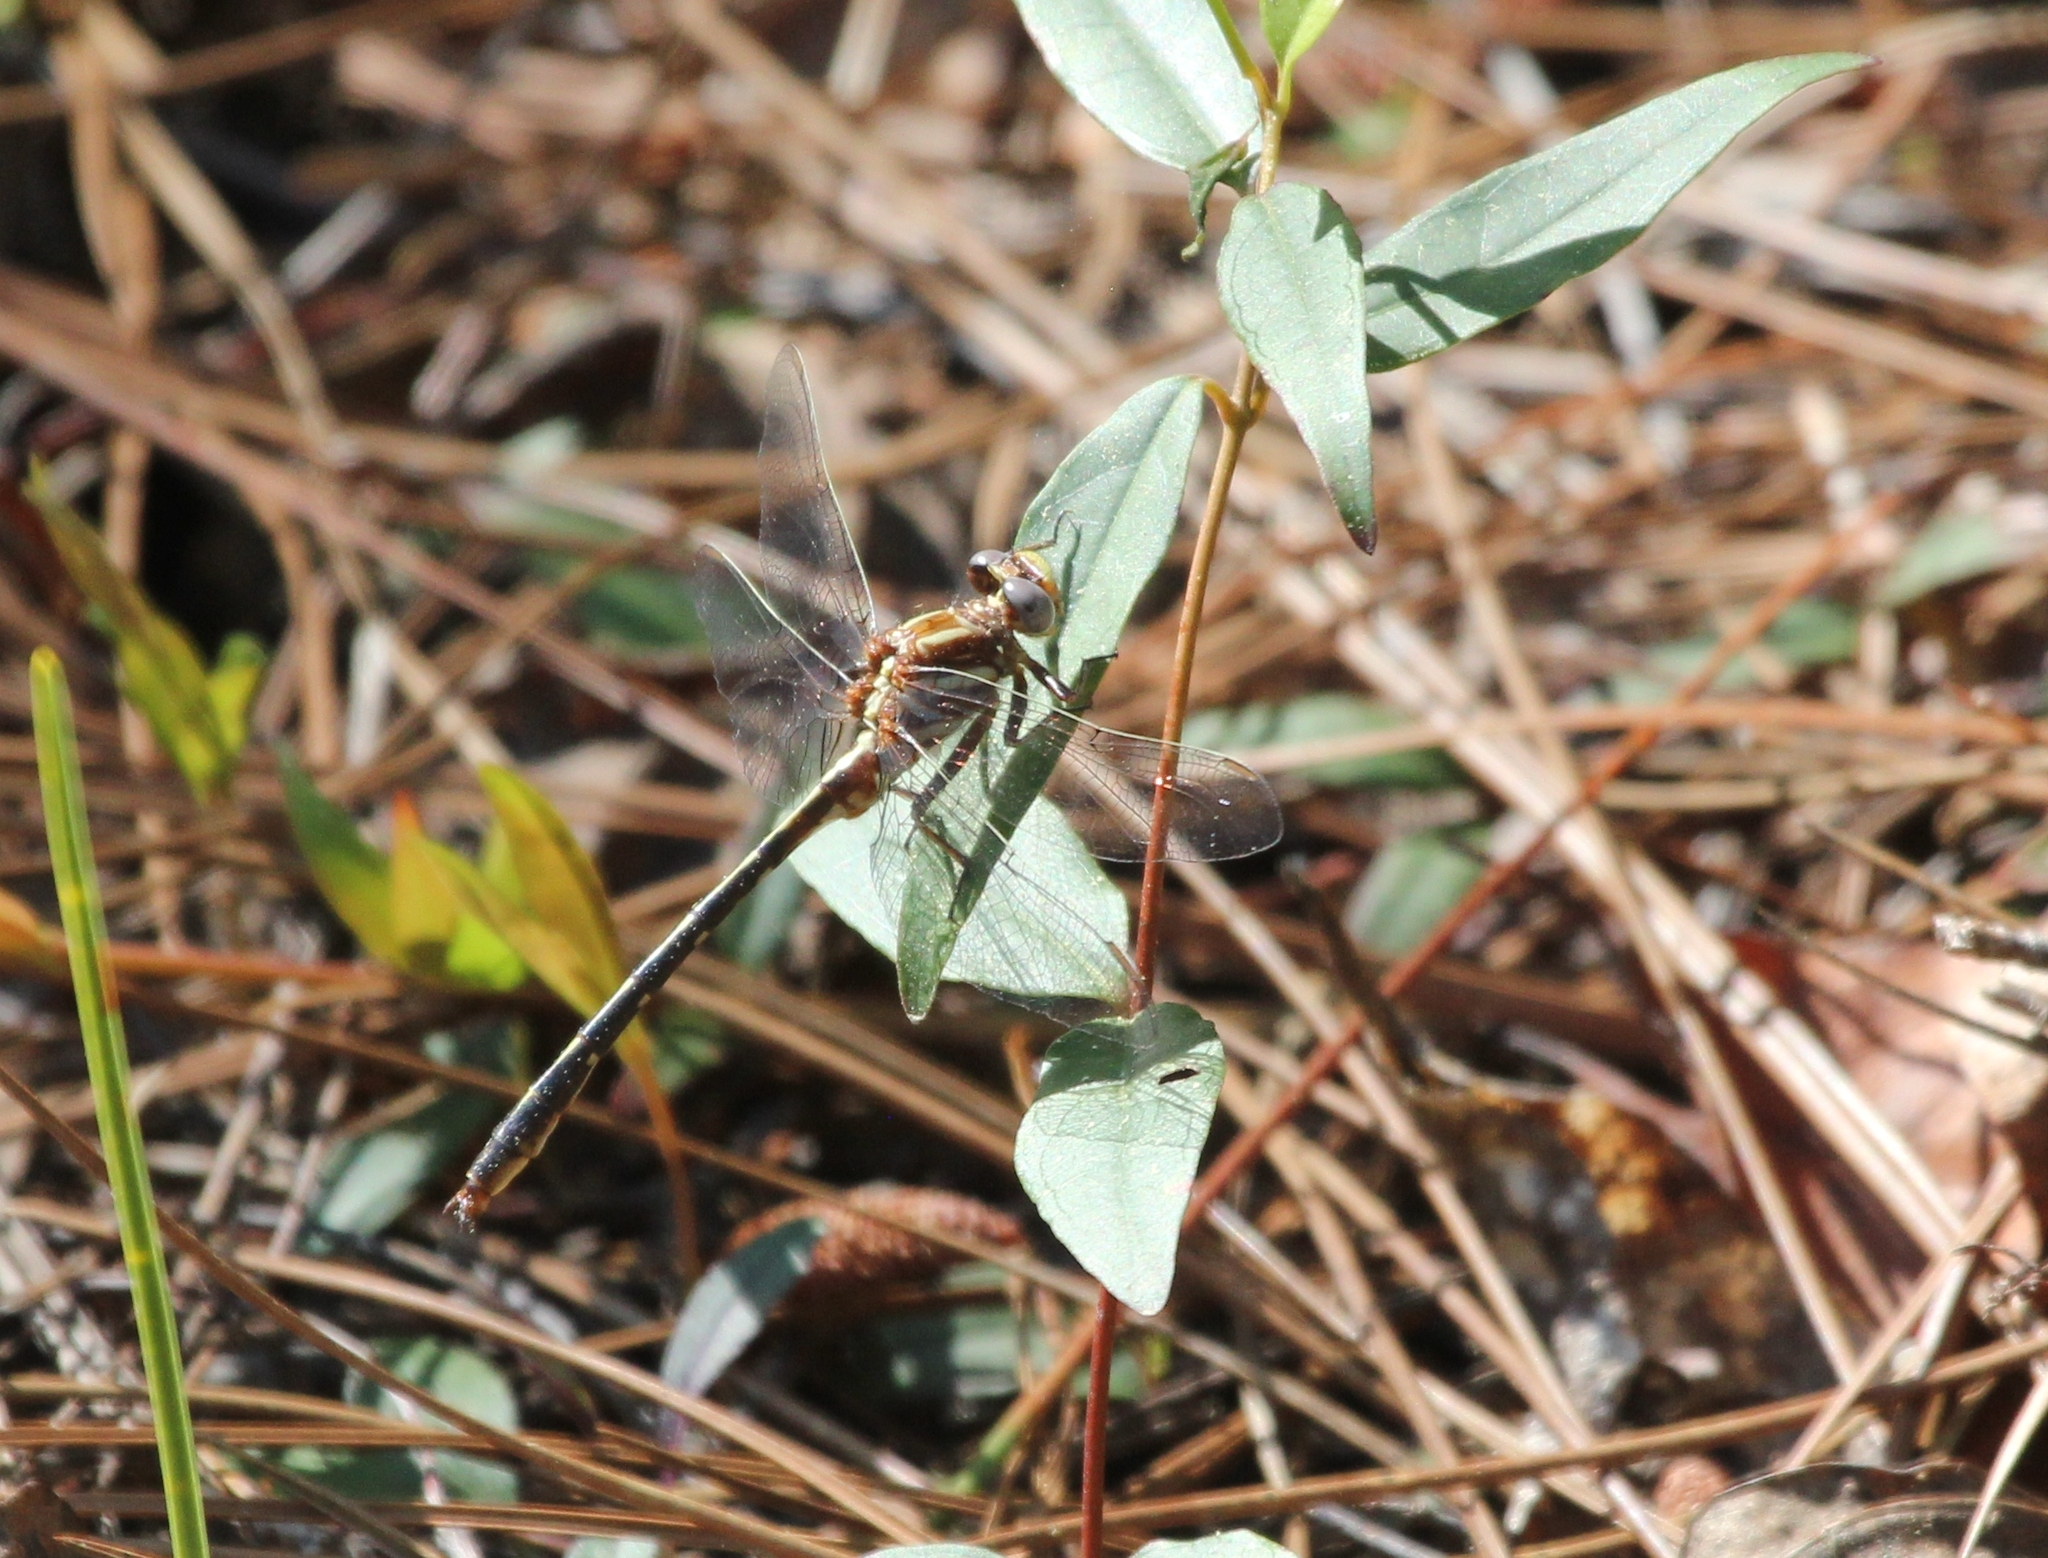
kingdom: Animalia
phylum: Arthropoda
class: Insecta
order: Odonata
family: Gomphidae
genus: Phanogomphus
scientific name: Phanogomphus lividus
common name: Ashy clubtail
